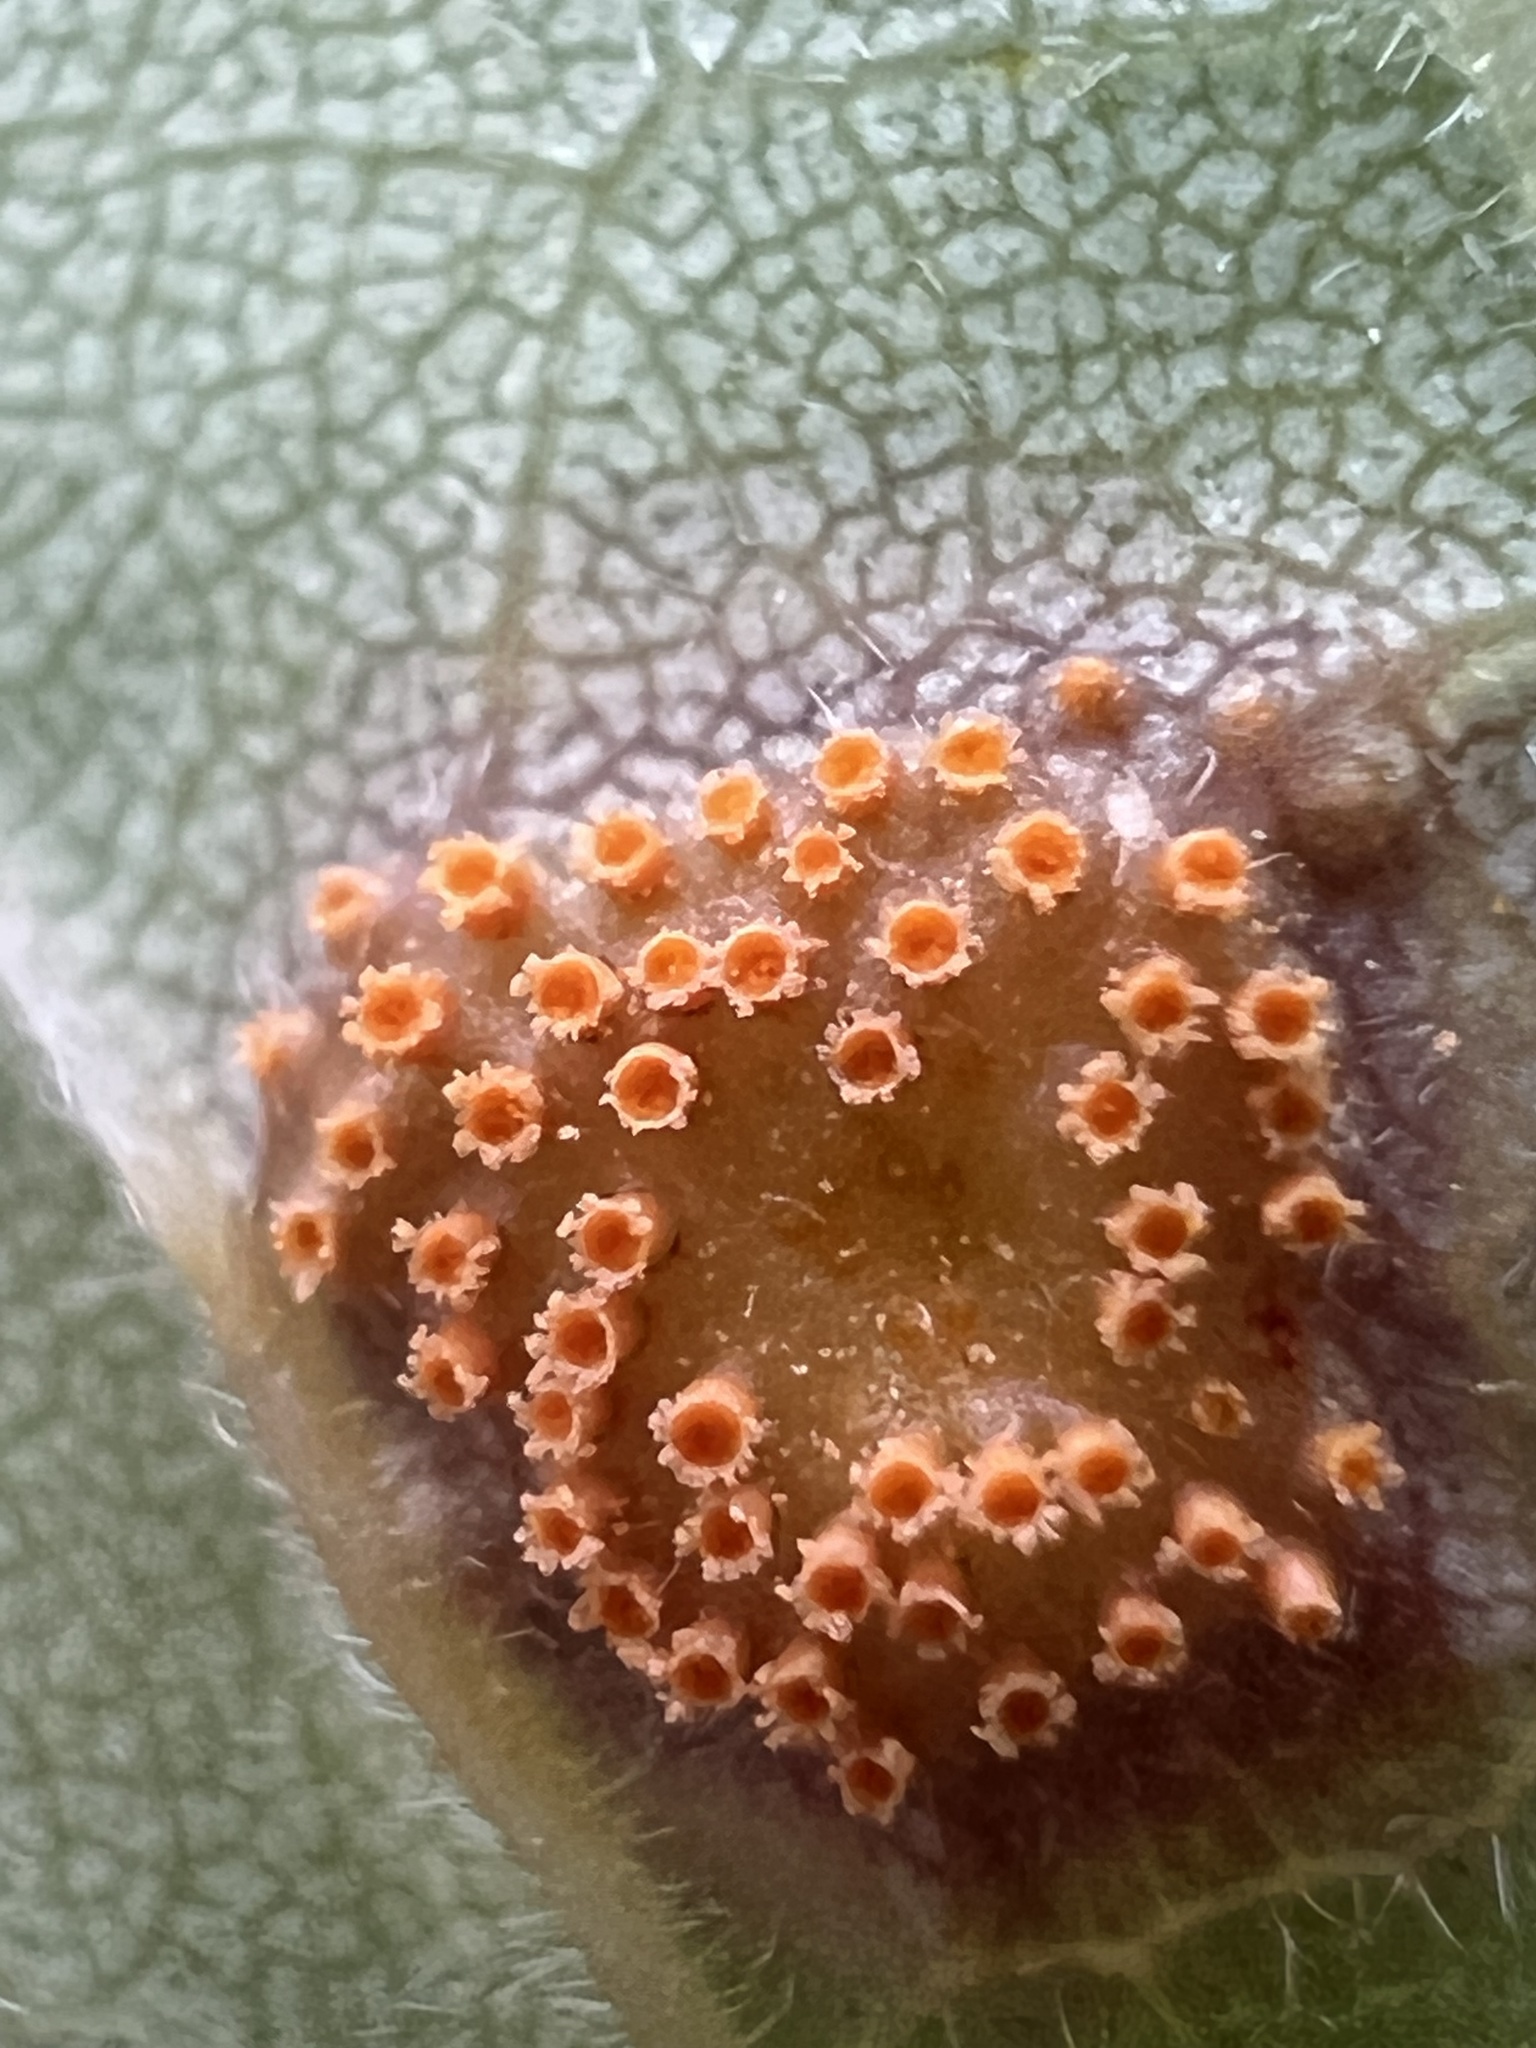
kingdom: Fungi
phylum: Basidiomycota
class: Pucciniomycetes
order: Pucciniales
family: Pucciniaceae
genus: Puccinia
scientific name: Puccinia peridermiospora
